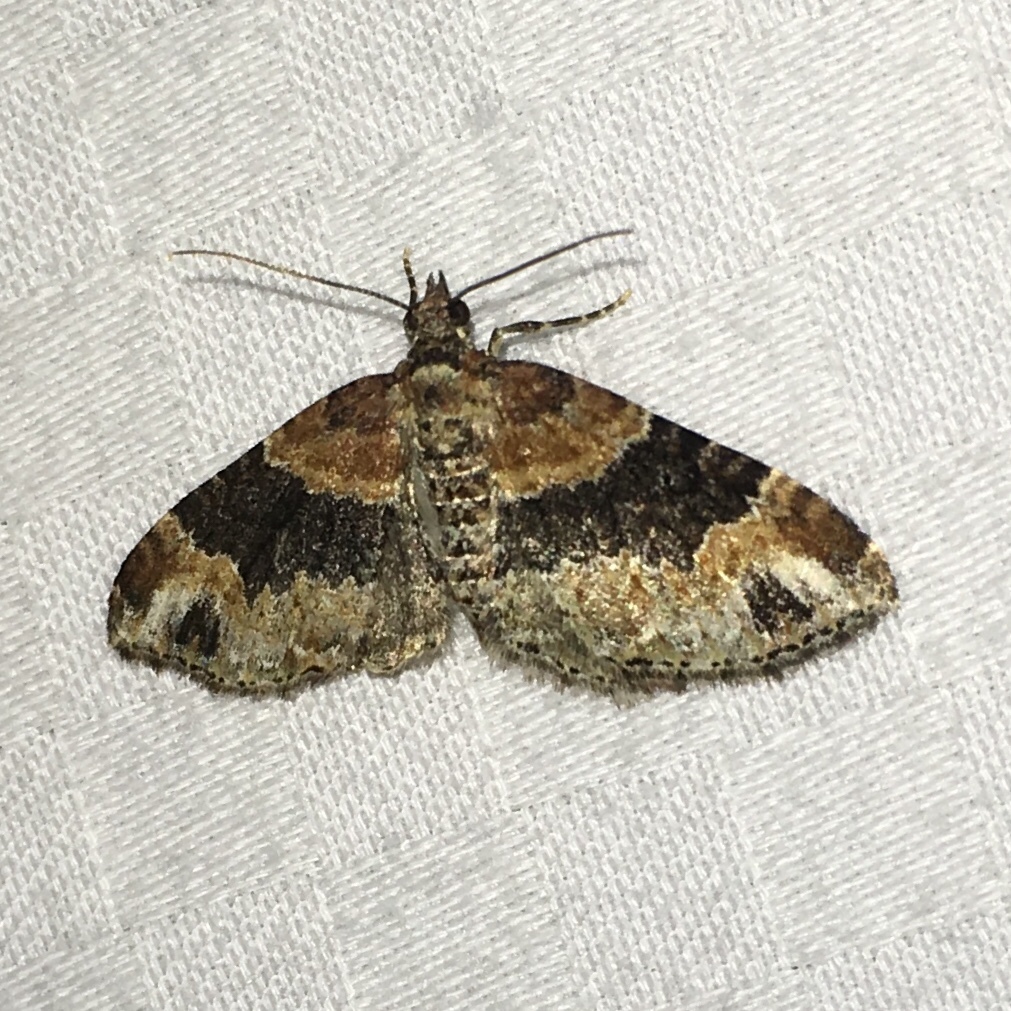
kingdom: Animalia
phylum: Arthropoda
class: Insecta
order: Lepidoptera
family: Geometridae
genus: Xanthorhoe
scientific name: Xanthorhoe ferrugata
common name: Dark-barred twin-spot carpet
